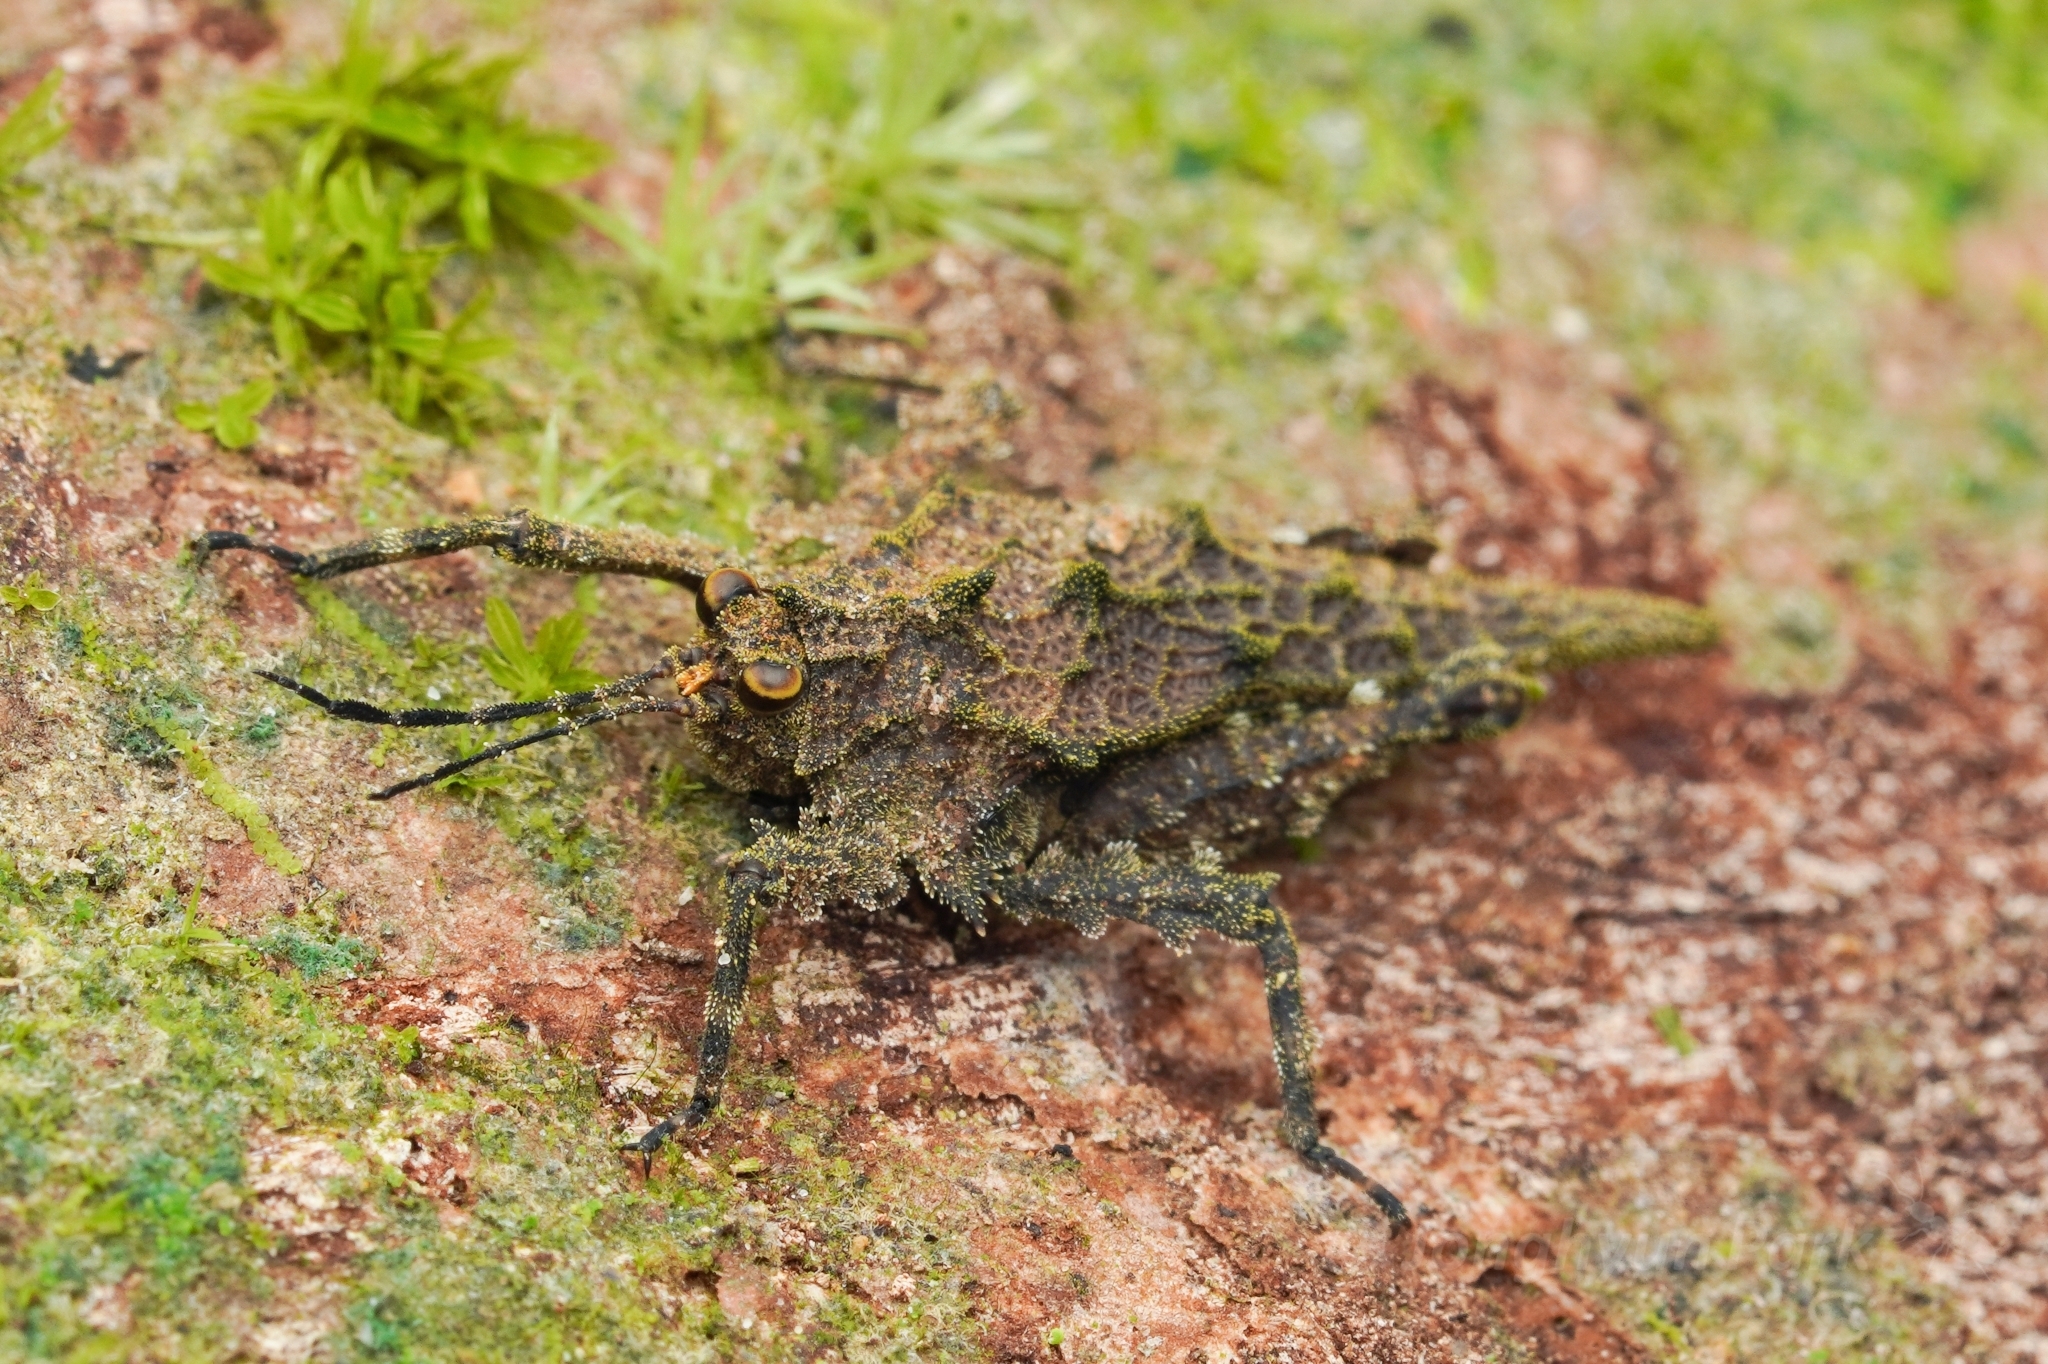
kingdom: Animalia
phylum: Arthropoda
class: Insecta
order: Orthoptera
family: Tetrigidae
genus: Discotettix
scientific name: Discotettix kirscheyi
